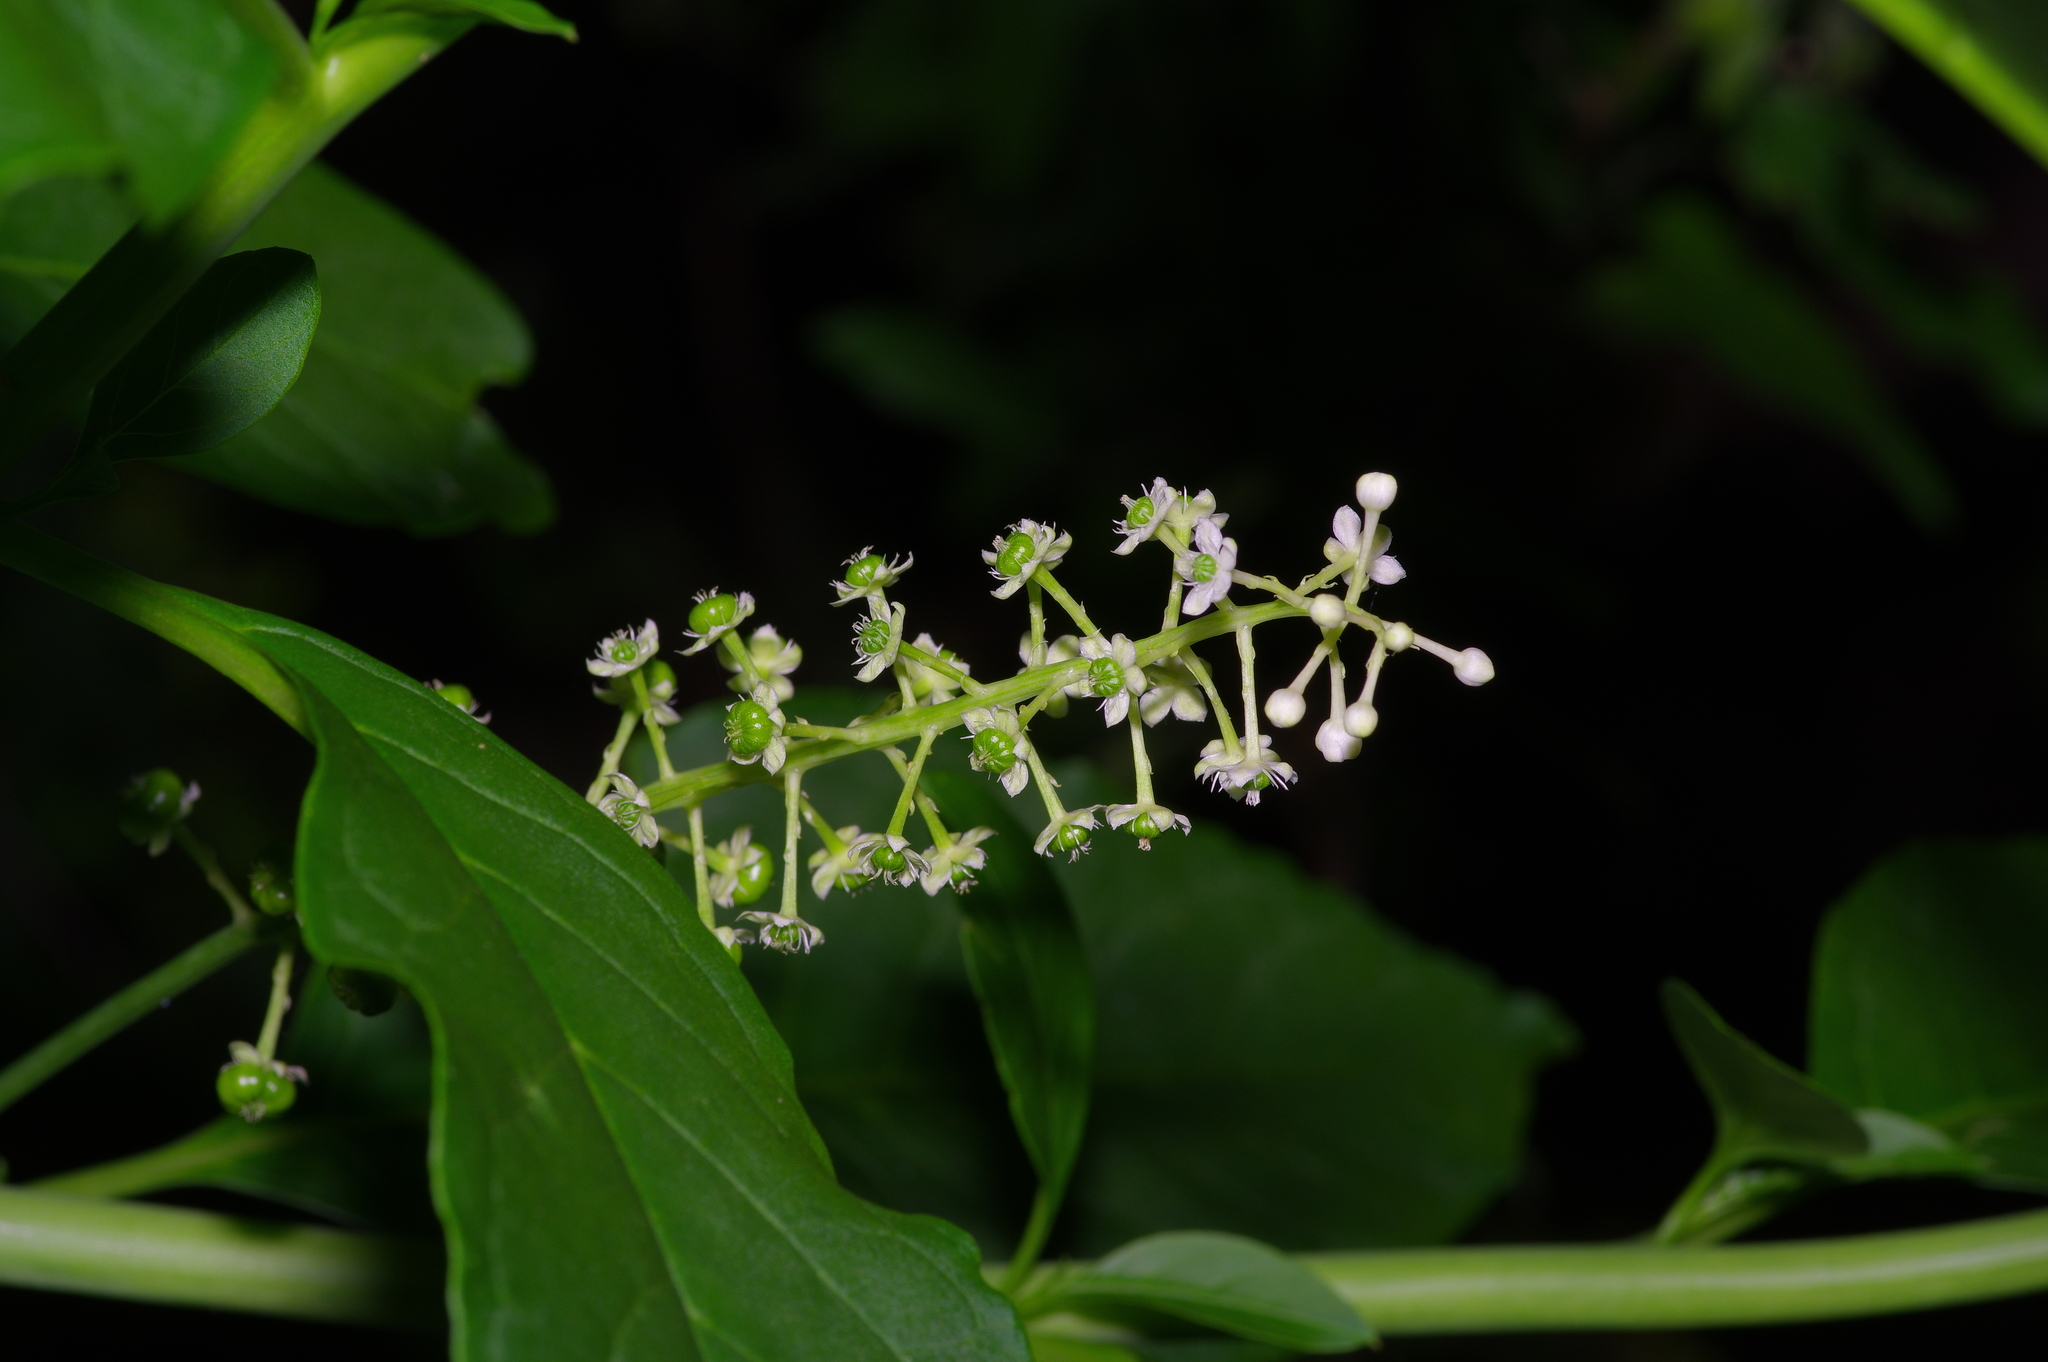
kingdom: Plantae
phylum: Tracheophyta
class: Magnoliopsida
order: Caryophyllales
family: Phytolaccaceae
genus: Phytolacca
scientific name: Phytolacca americana
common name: American pokeweed
